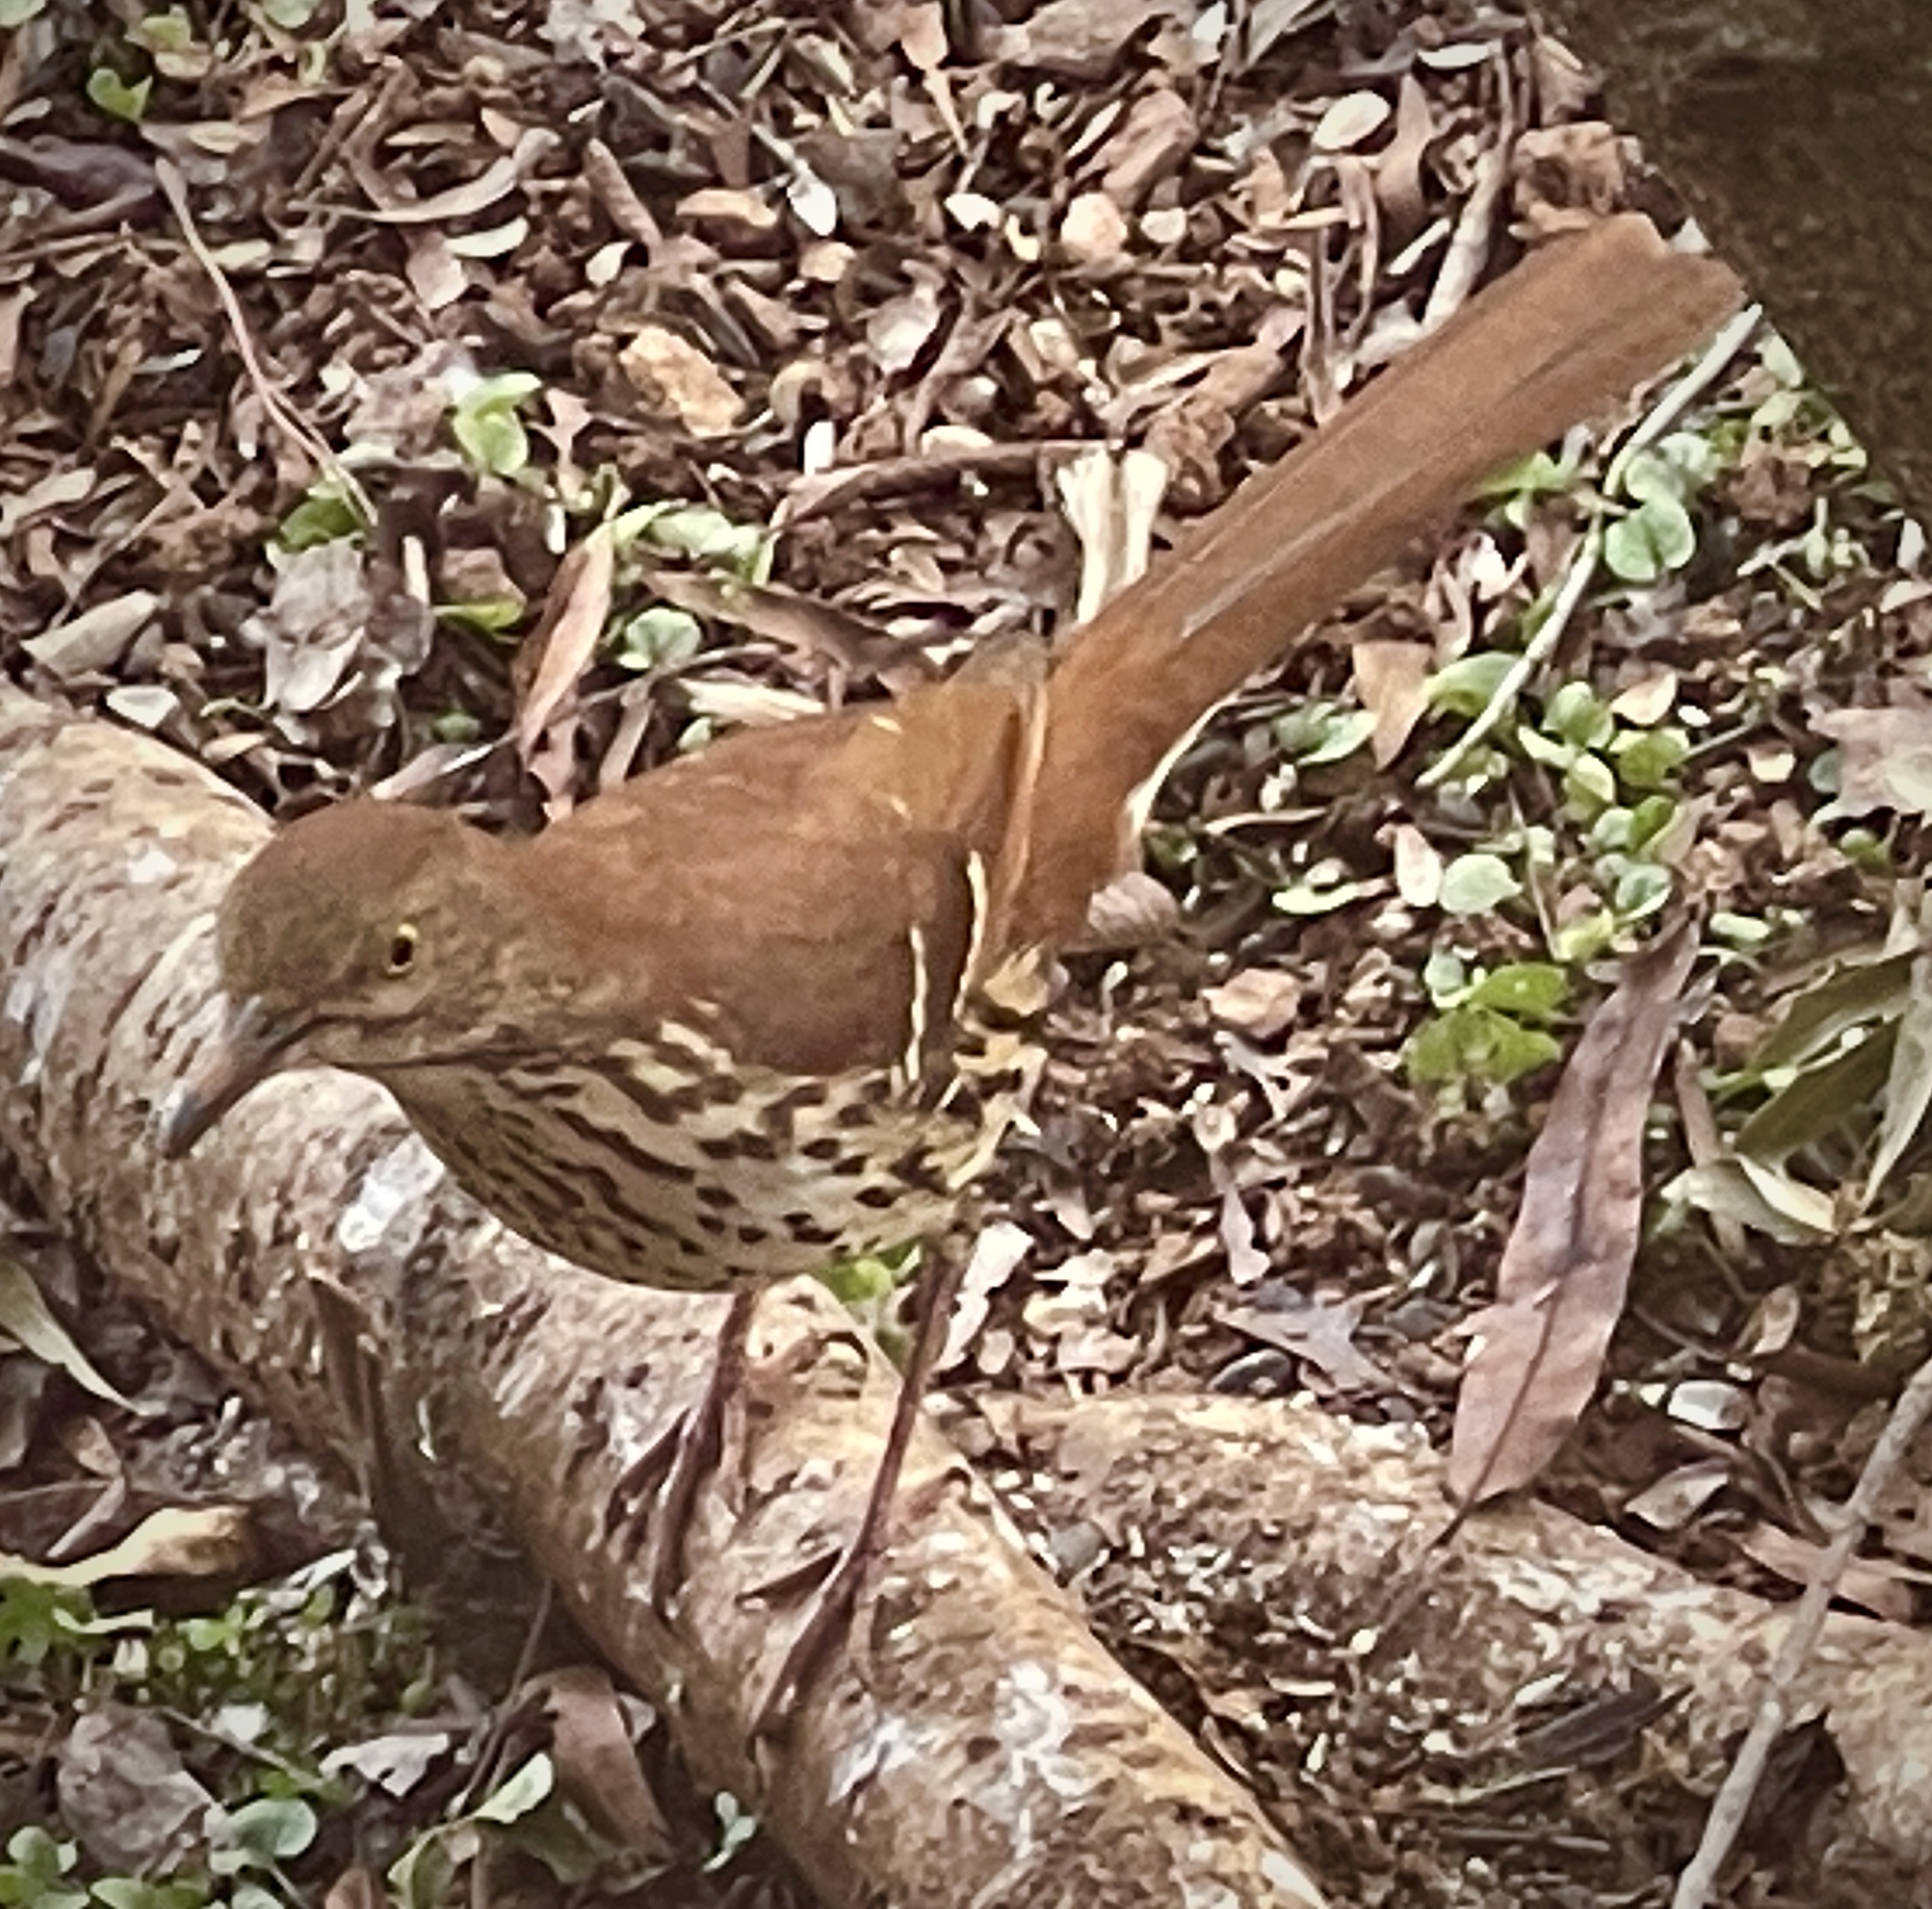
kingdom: Animalia
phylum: Chordata
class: Aves
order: Passeriformes
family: Mimidae
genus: Toxostoma
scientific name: Toxostoma rufum
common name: Brown thrasher
